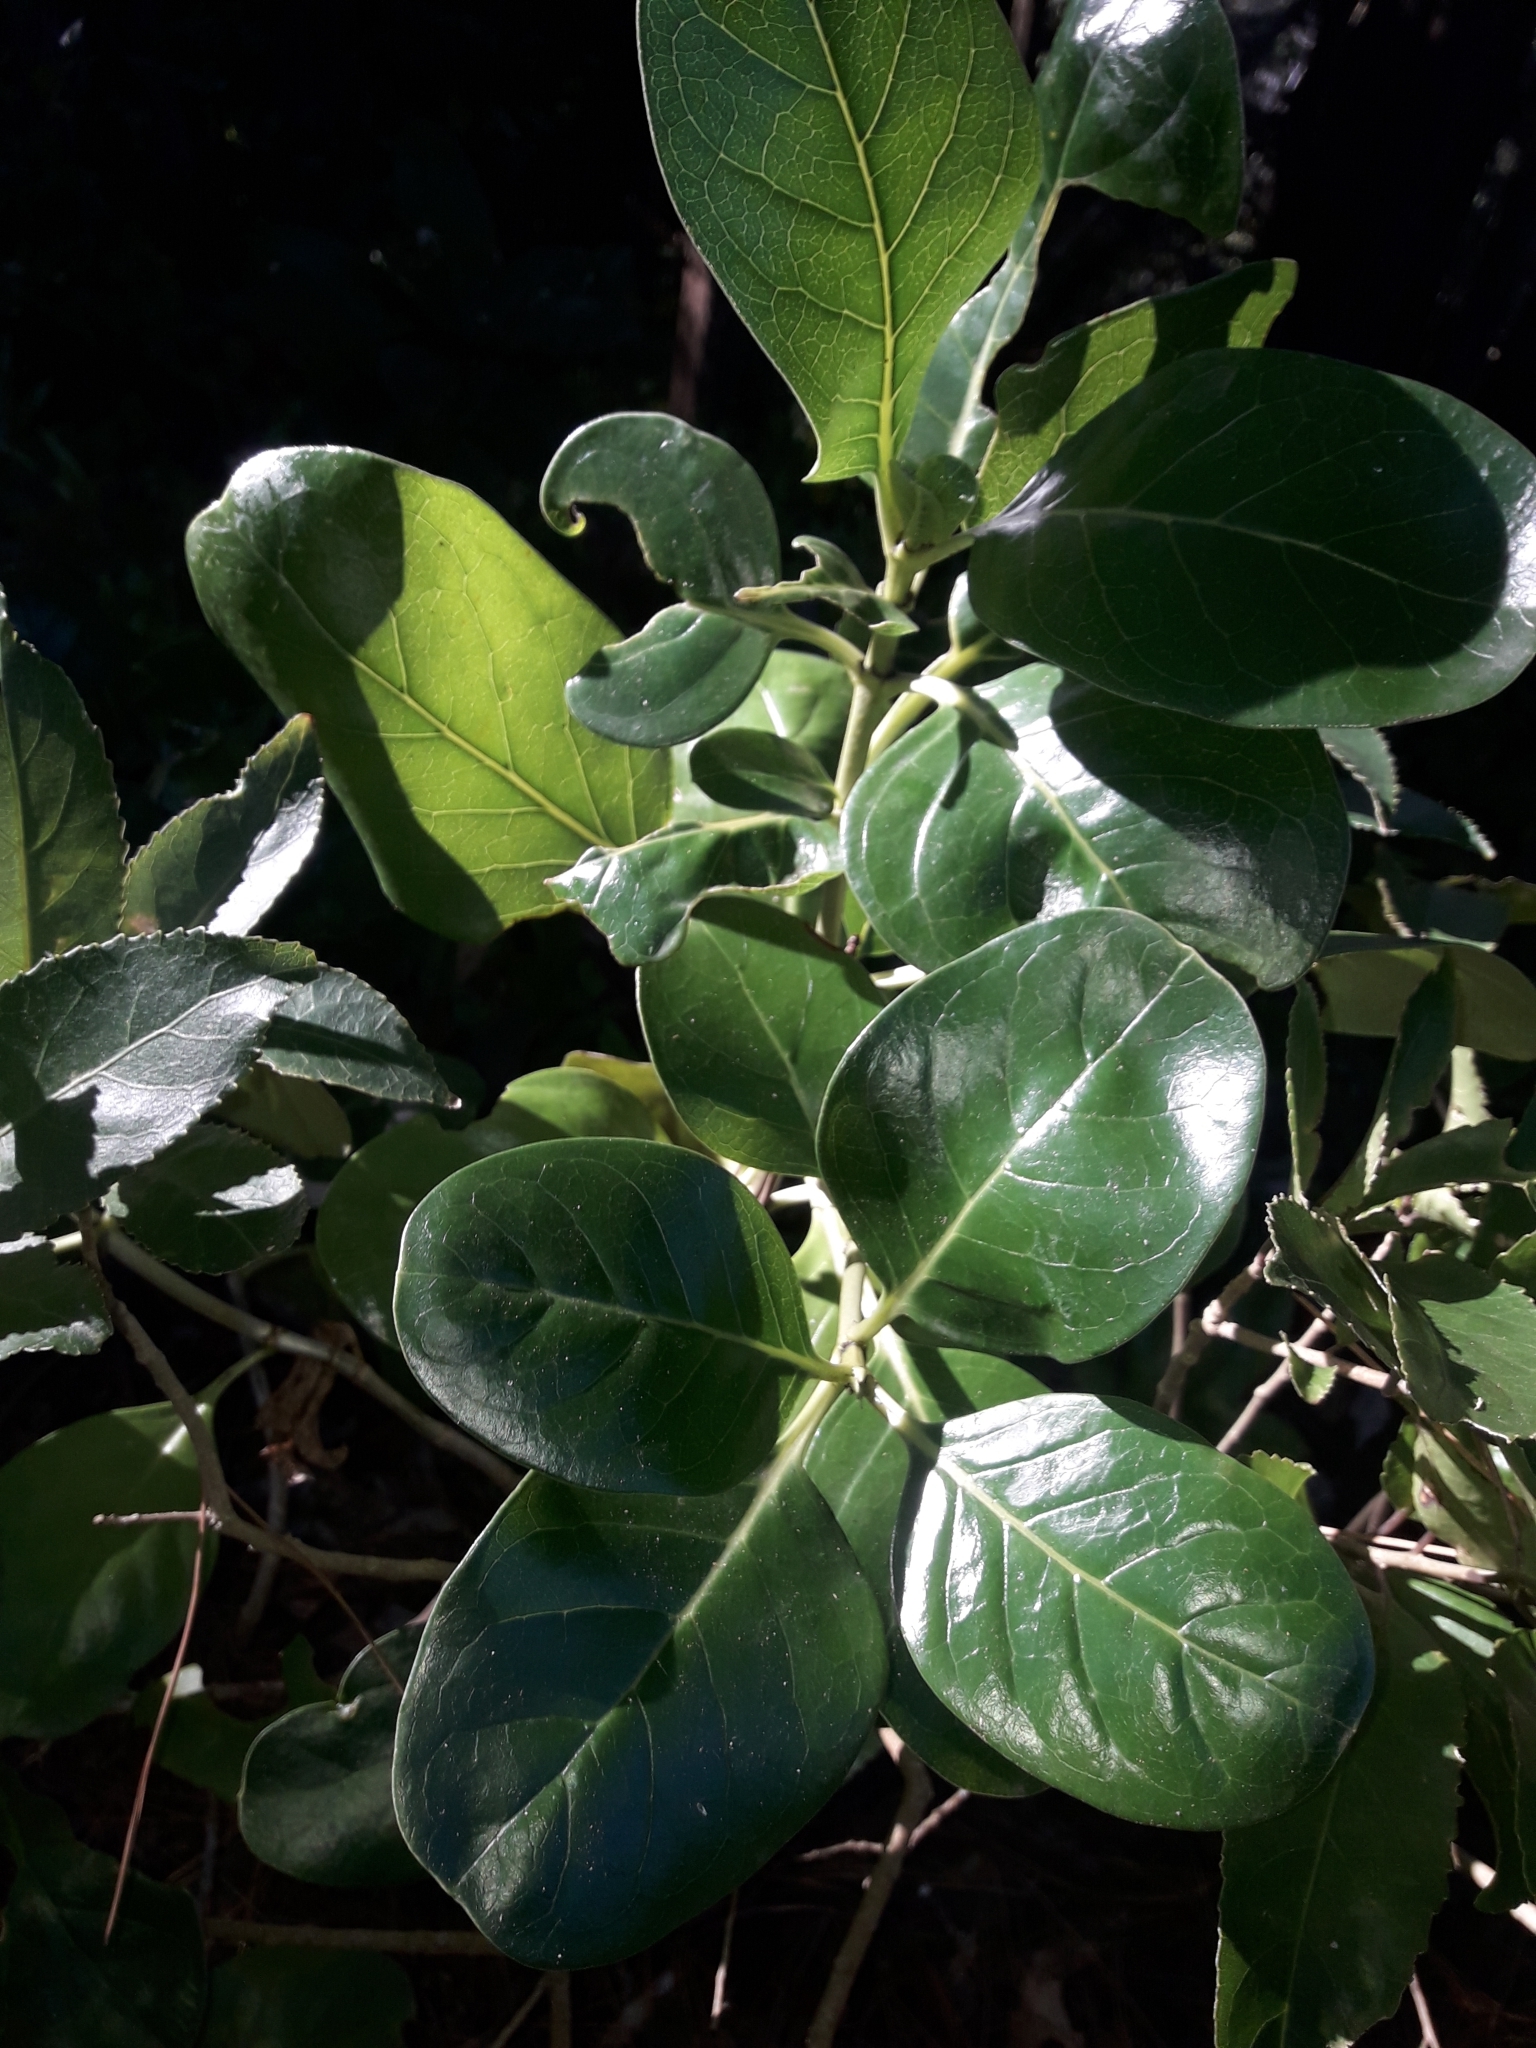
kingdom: Plantae
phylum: Tracheophyta
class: Magnoliopsida
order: Gentianales
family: Rubiaceae
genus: Coprosma
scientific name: Coprosma repens
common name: Tree bedstraw
